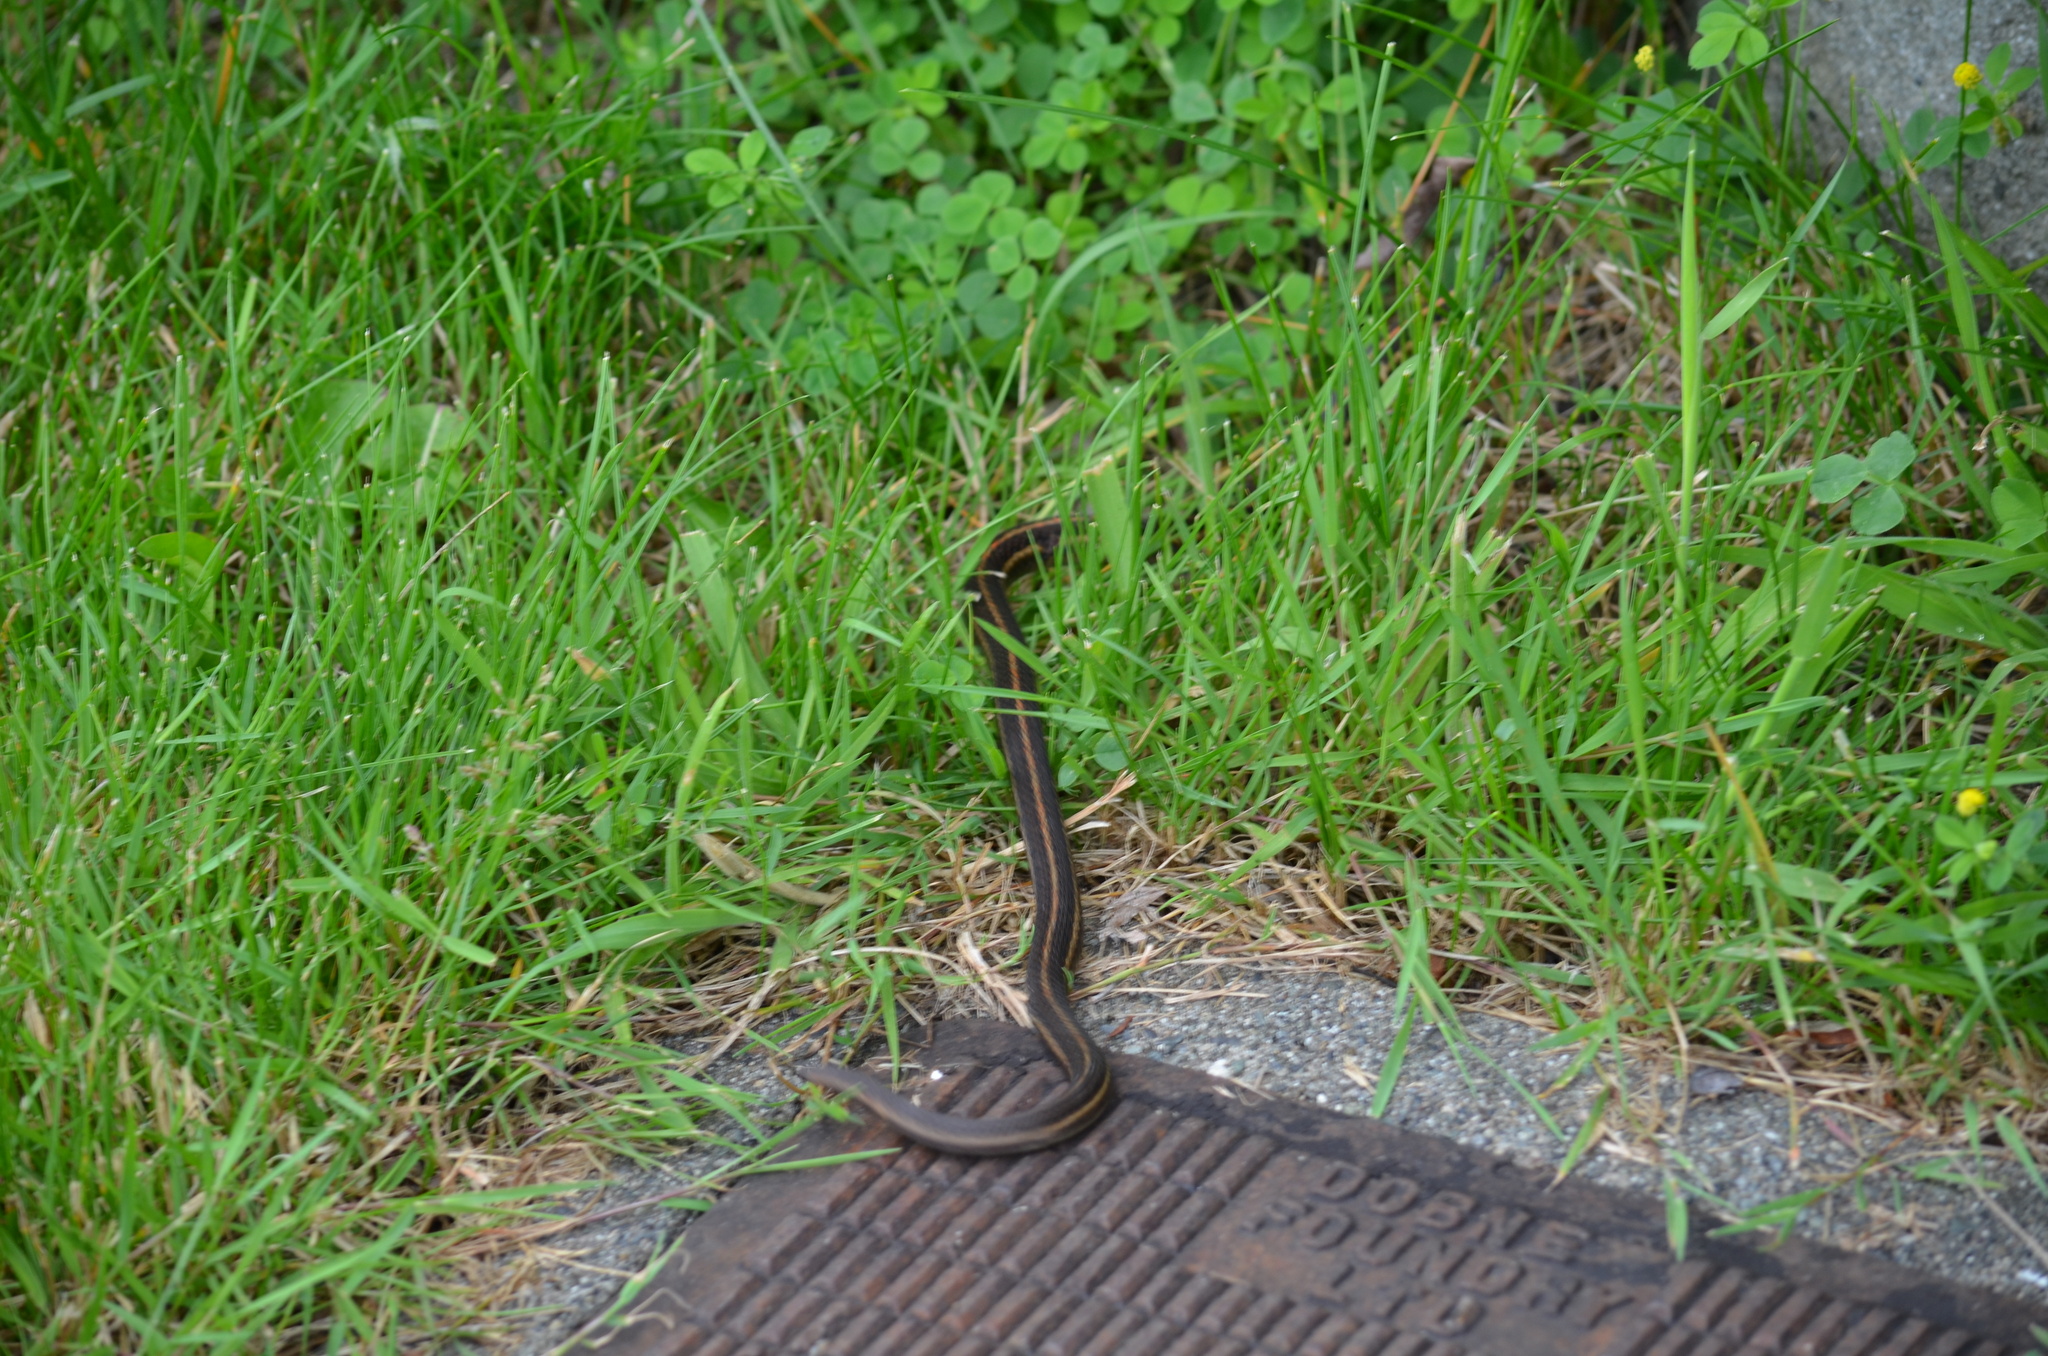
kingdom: Animalia
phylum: Chordata
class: Squamata
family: Colubridae
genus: Thamnophis
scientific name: Thamnophis ordinoides
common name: Northwestern garter snake
